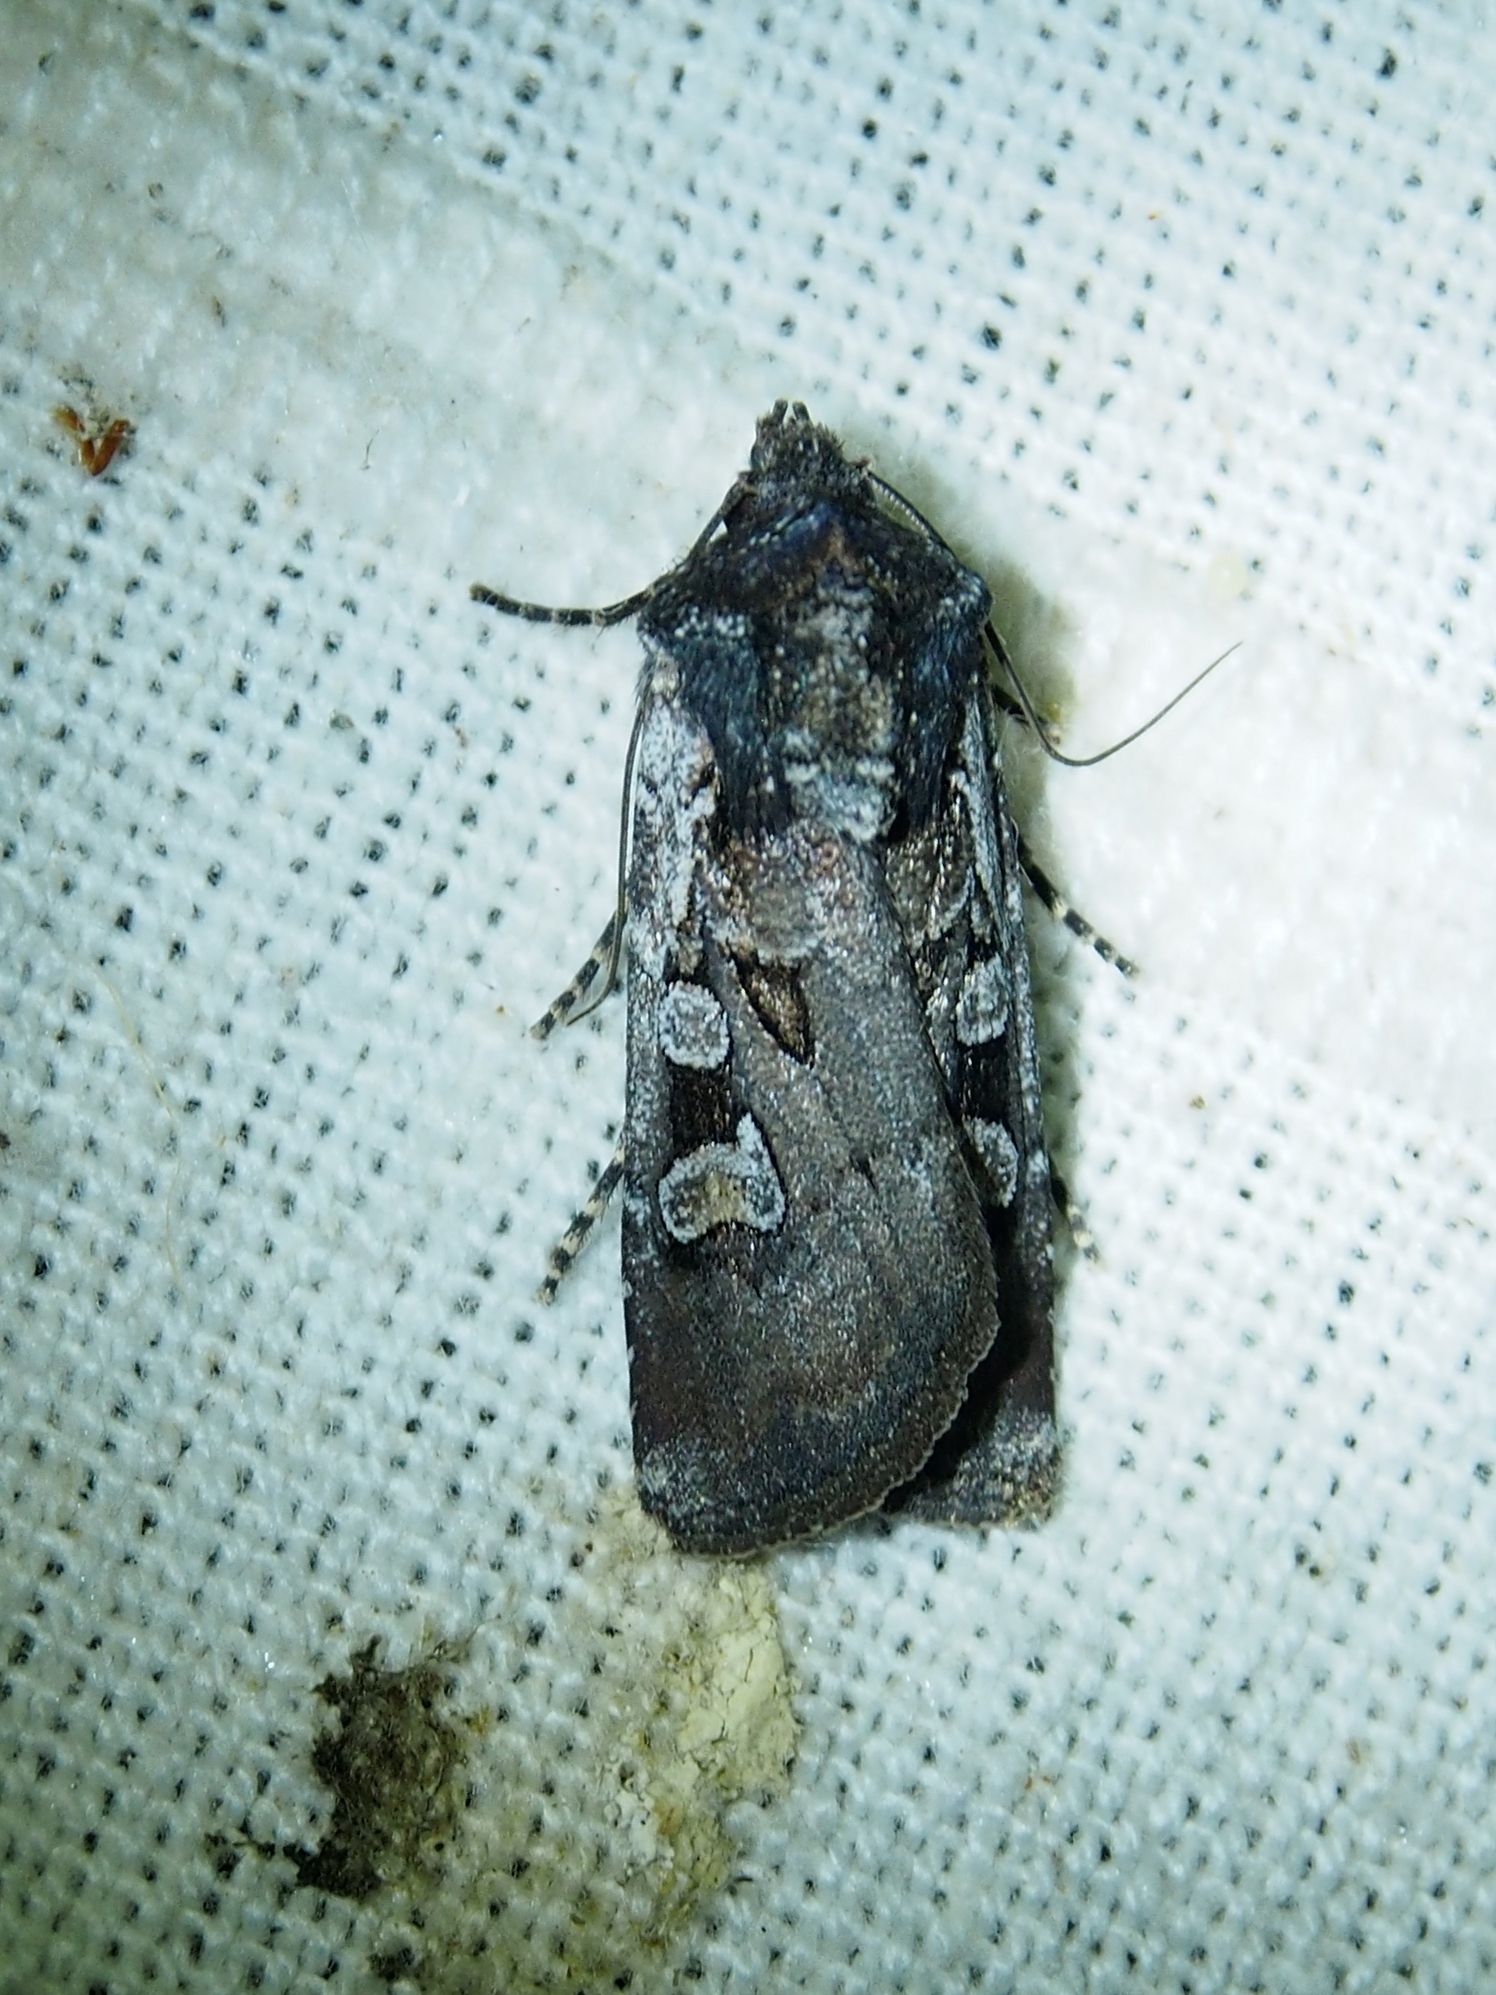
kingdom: Animalia
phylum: Arthropoda
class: Insecta
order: Lepidoptera
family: Noctuidae
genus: Euxoa
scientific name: Euxoa obelisca
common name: Square-spot dart
